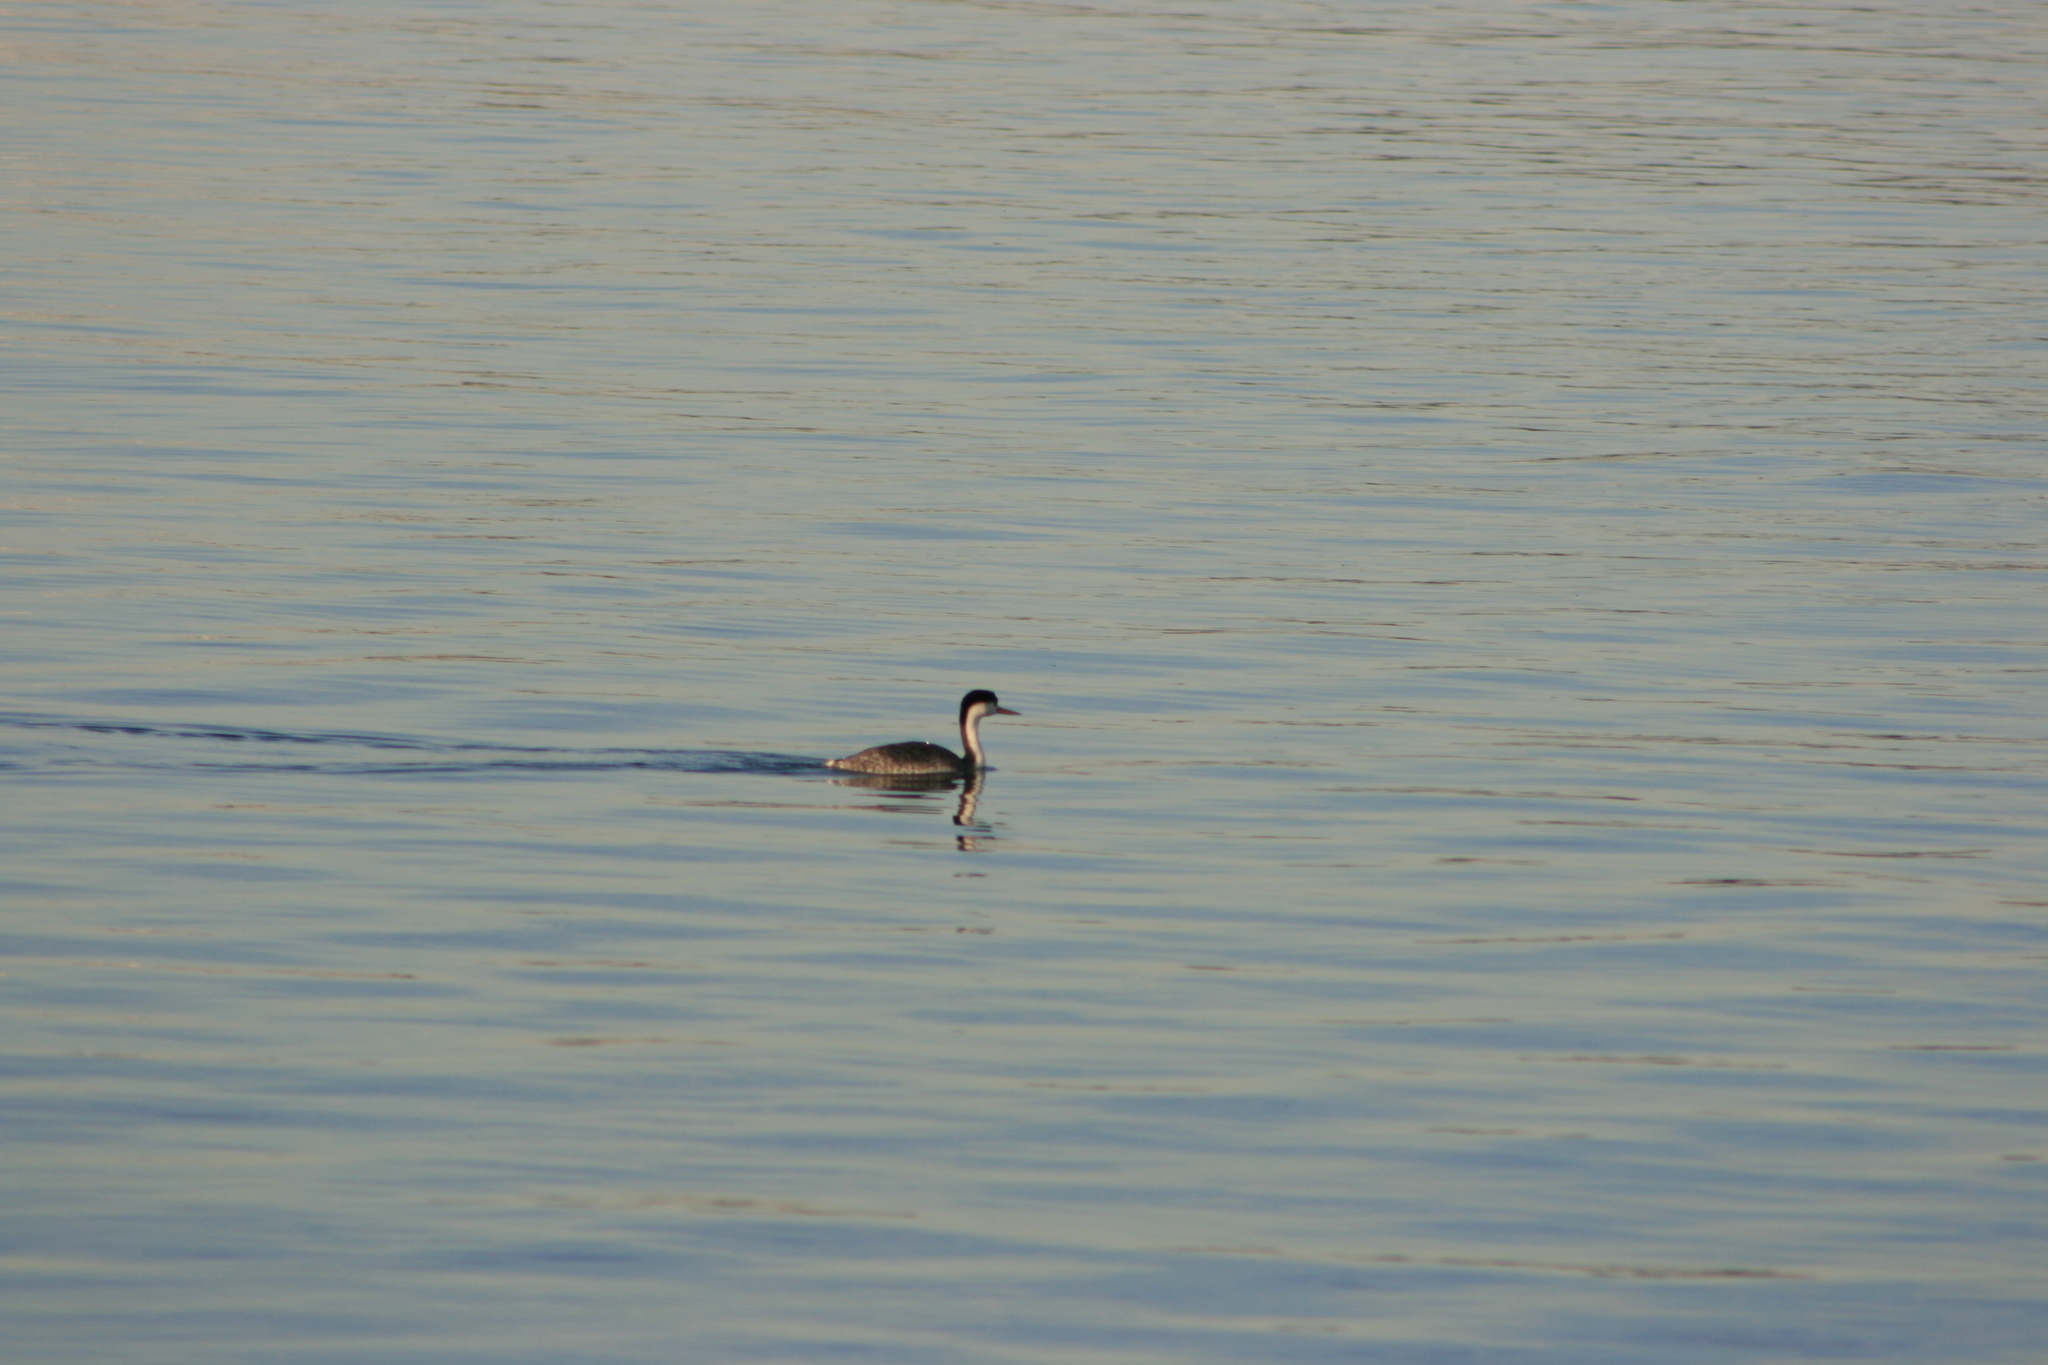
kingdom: Animalia
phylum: Chordata
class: Aves
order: Podicipediformes
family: Podicipedidae
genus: Aechmophorus
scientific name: Aechmophorus occidentalis
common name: Western grebe
